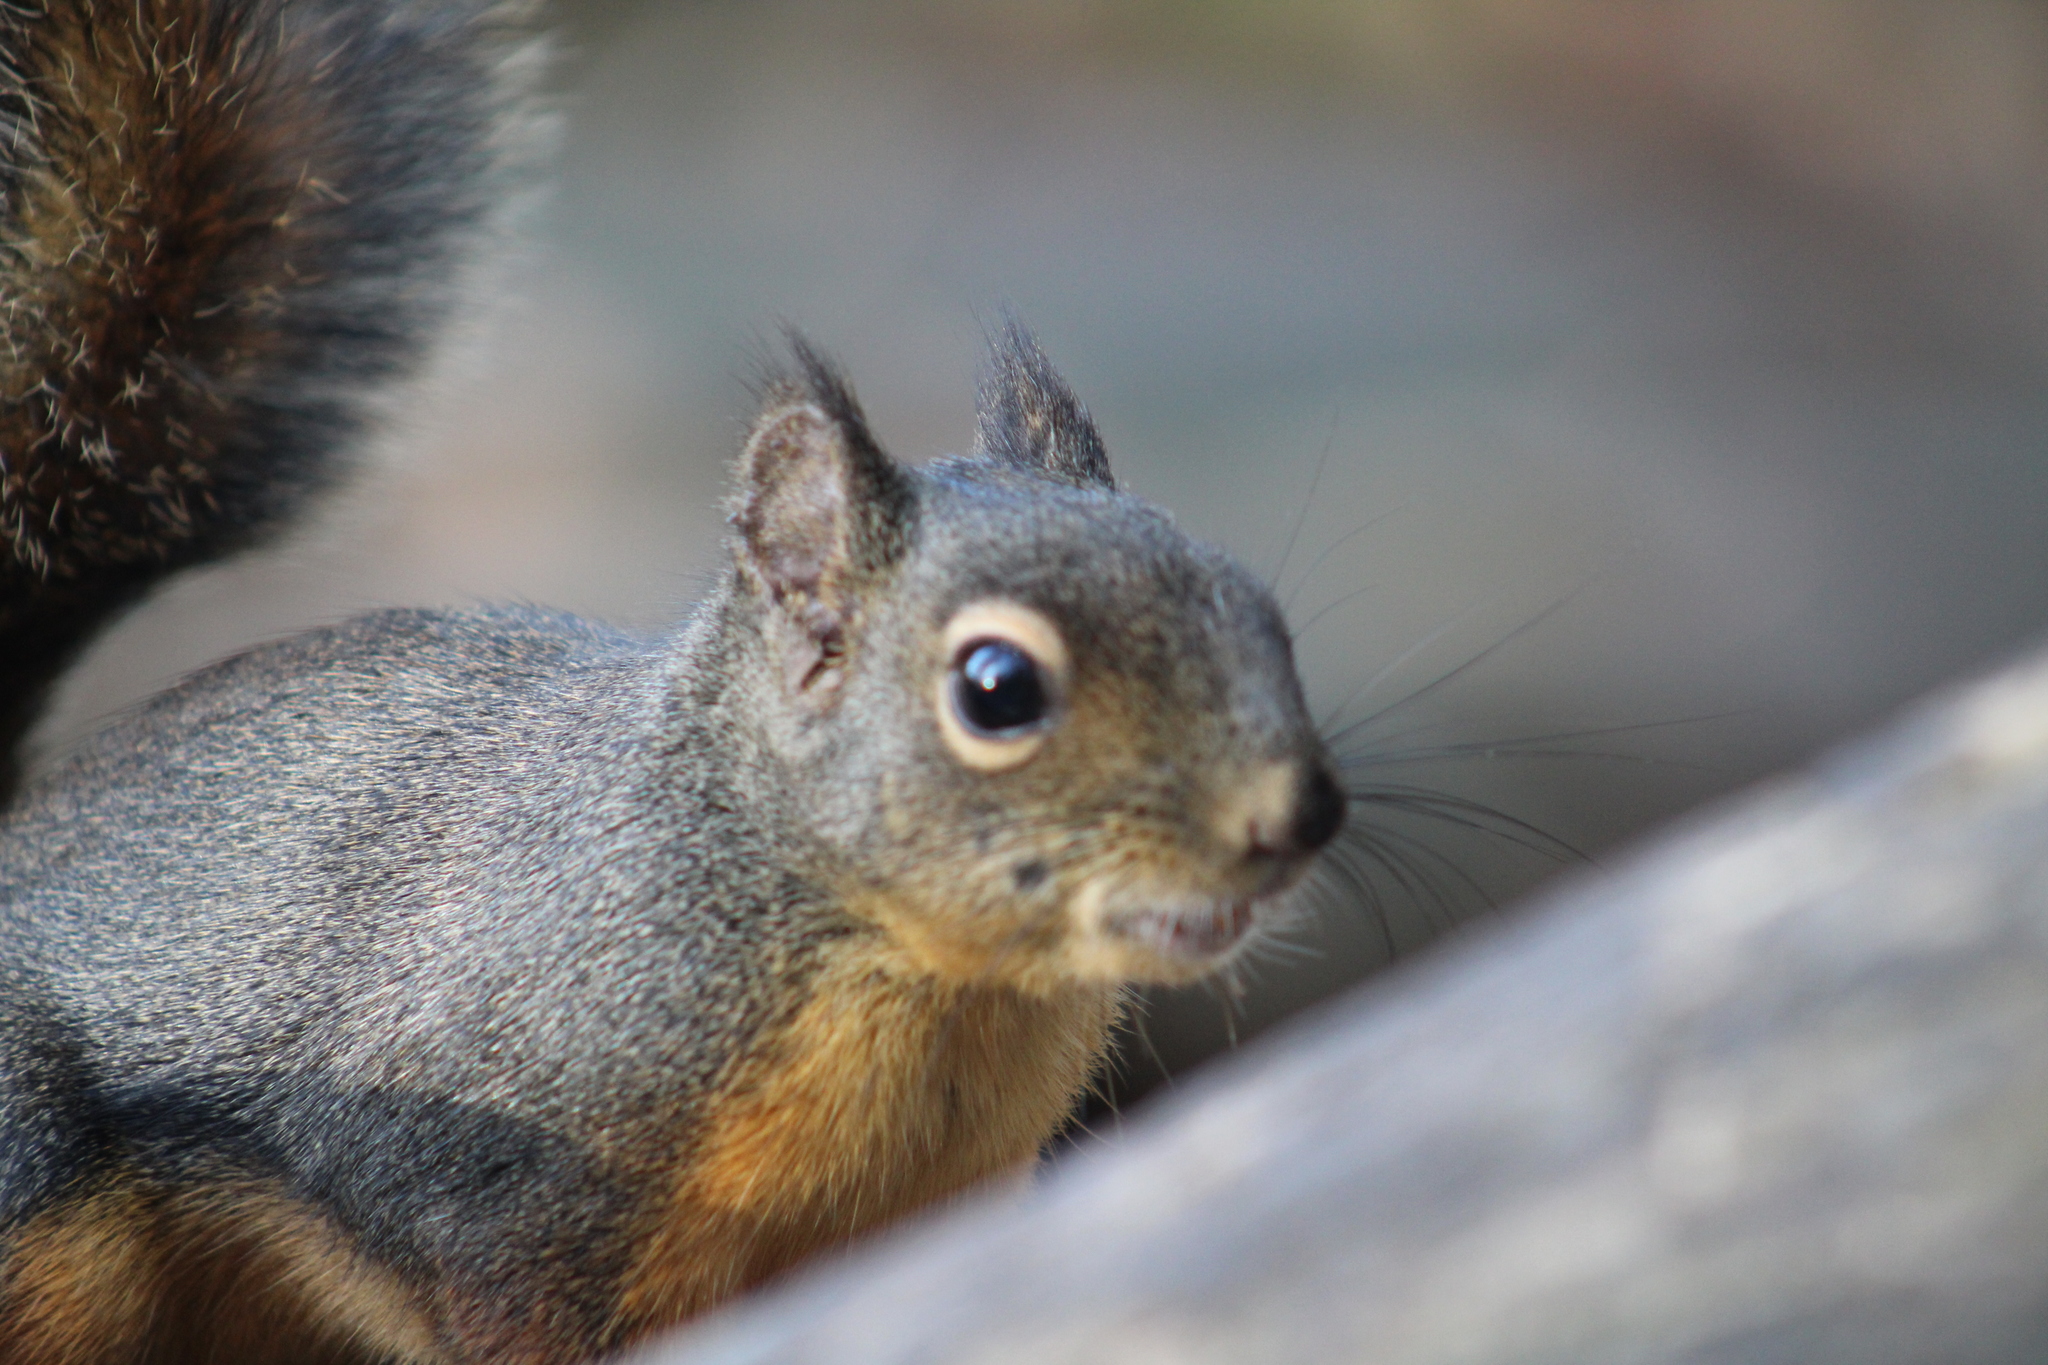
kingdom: Animalia
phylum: Chordata
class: Mammalia
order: Rodentia
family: Sciuridae
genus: Tamiasciurus
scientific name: Tamiasciurus douglasii
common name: Douglas's squirrel
